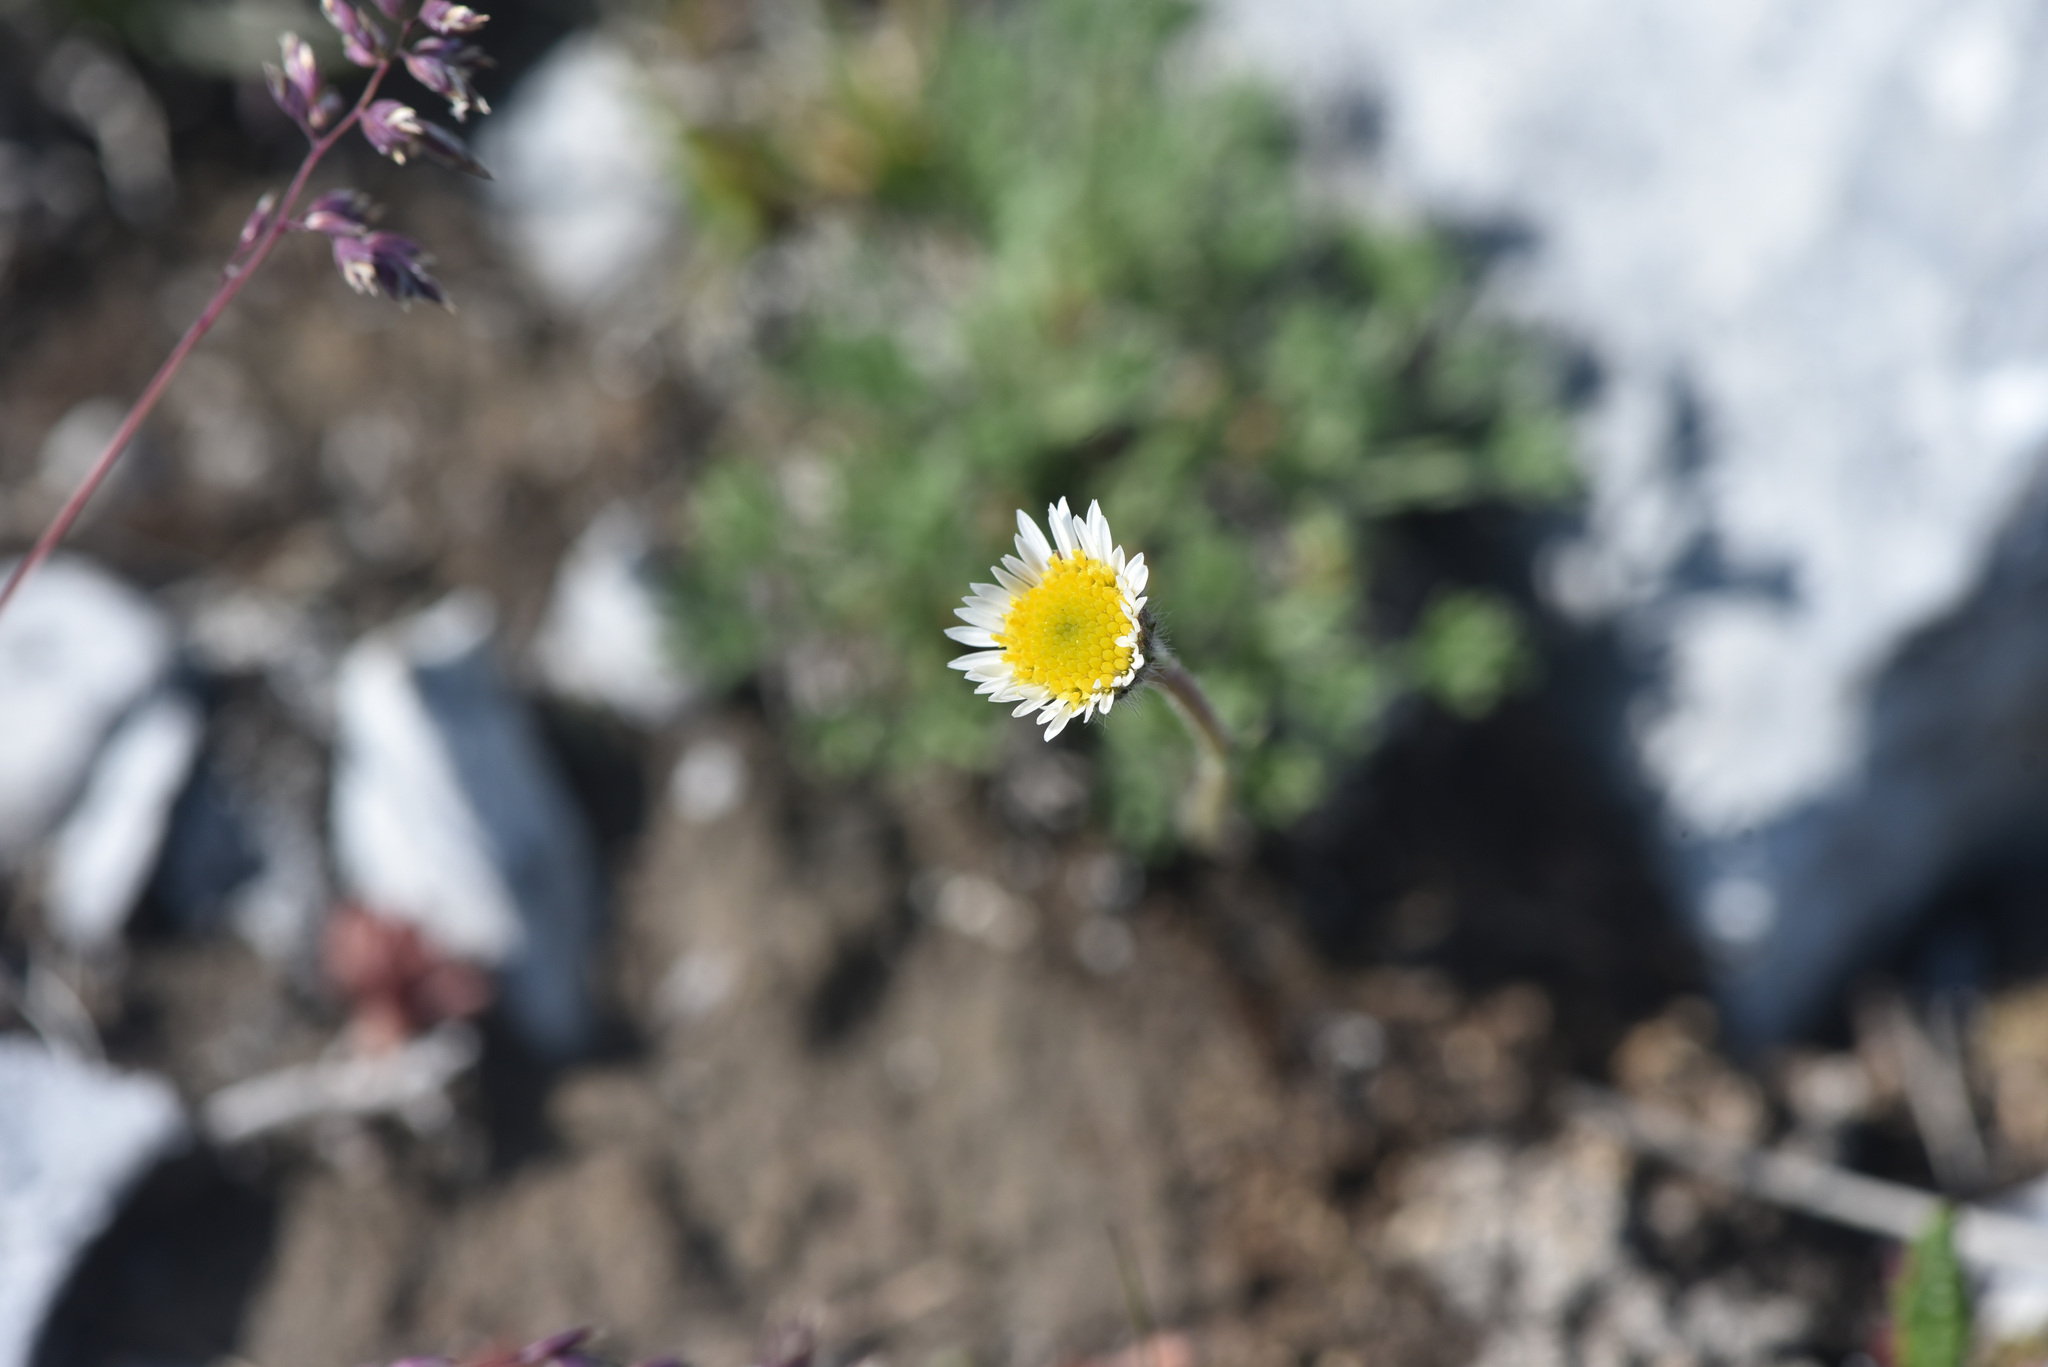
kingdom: Plantae
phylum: Tracheophyta
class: Magnoliopsida
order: Asterales
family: Asteraceae
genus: Erigeron
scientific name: Erigeron compositus
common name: Dwarf mountain fleabane
